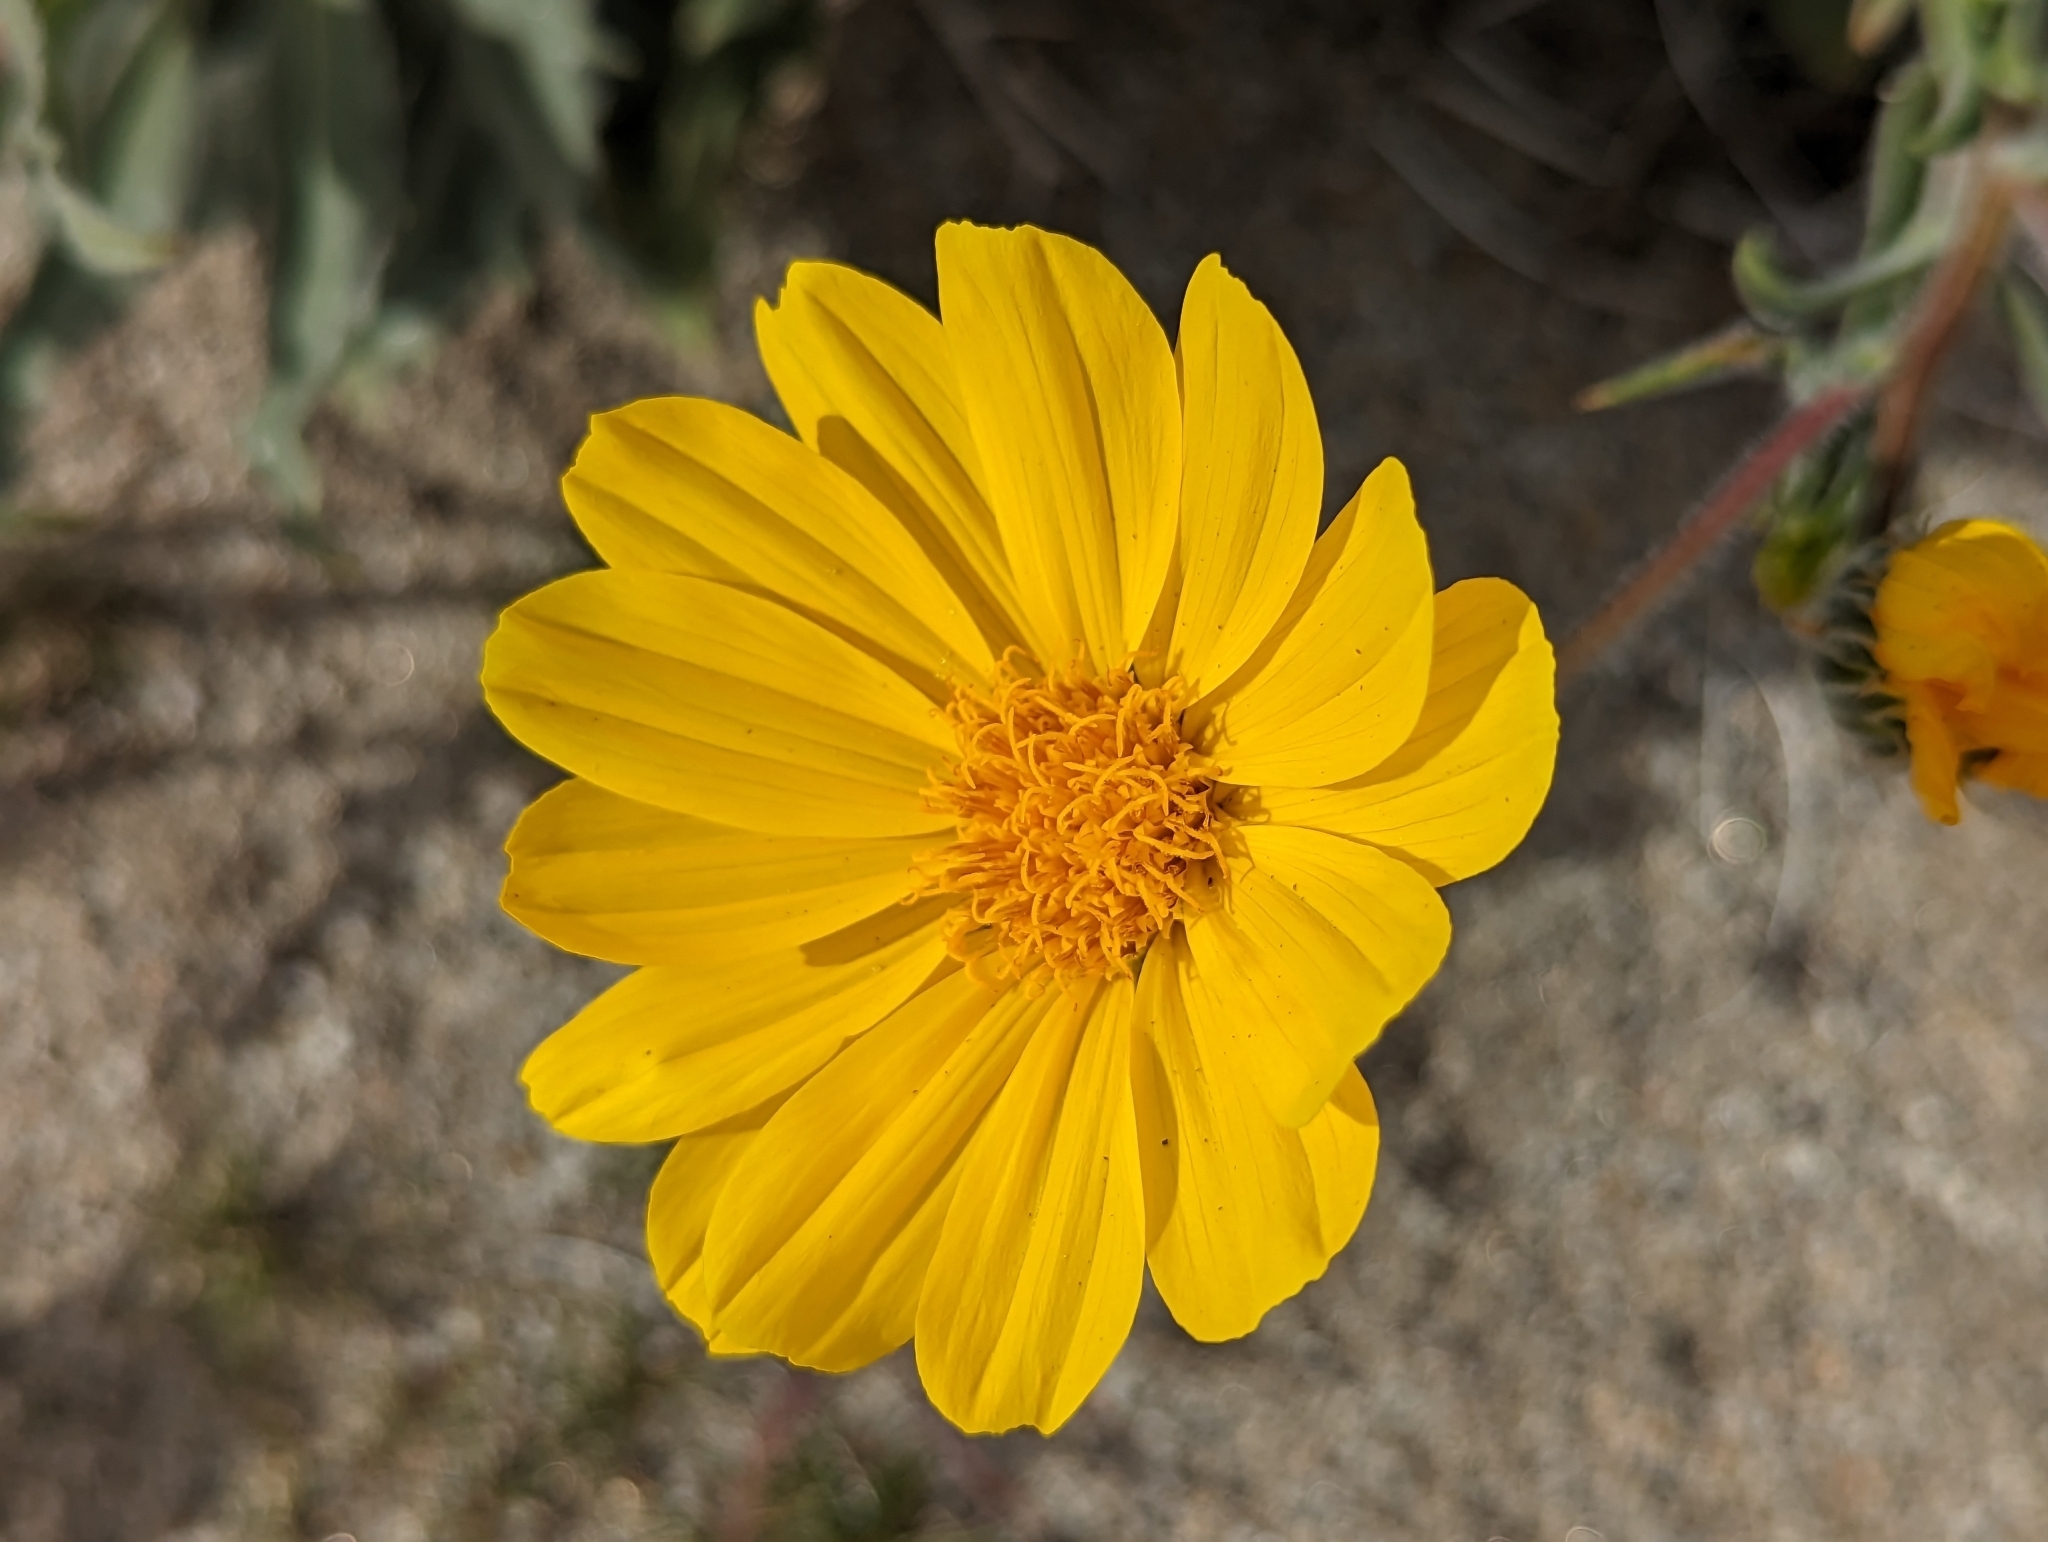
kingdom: Plantae
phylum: Tracheophyta
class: Magnoliopsida
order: Asterales
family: Asteraceae
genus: Geraea
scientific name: Geraea canescens
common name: Desert-gold
